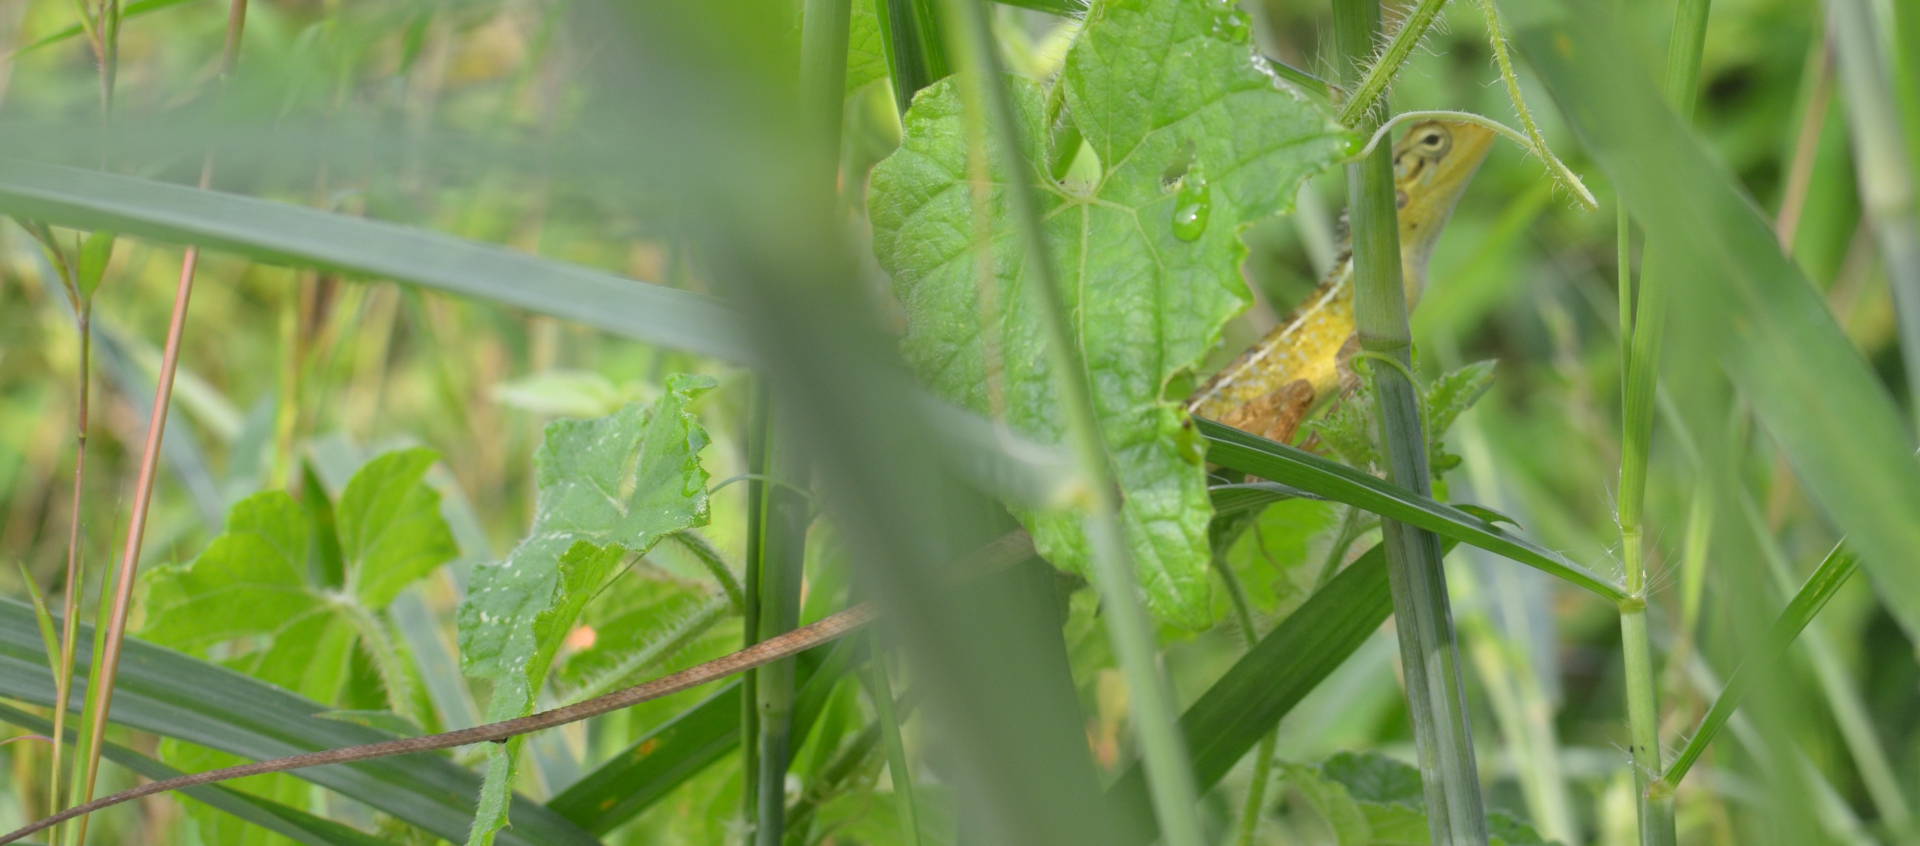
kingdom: Animalia
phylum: Chordata
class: Squamata
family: Agamidae
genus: Calotes
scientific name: Calotes versicolor
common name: Oriental garden lizard
